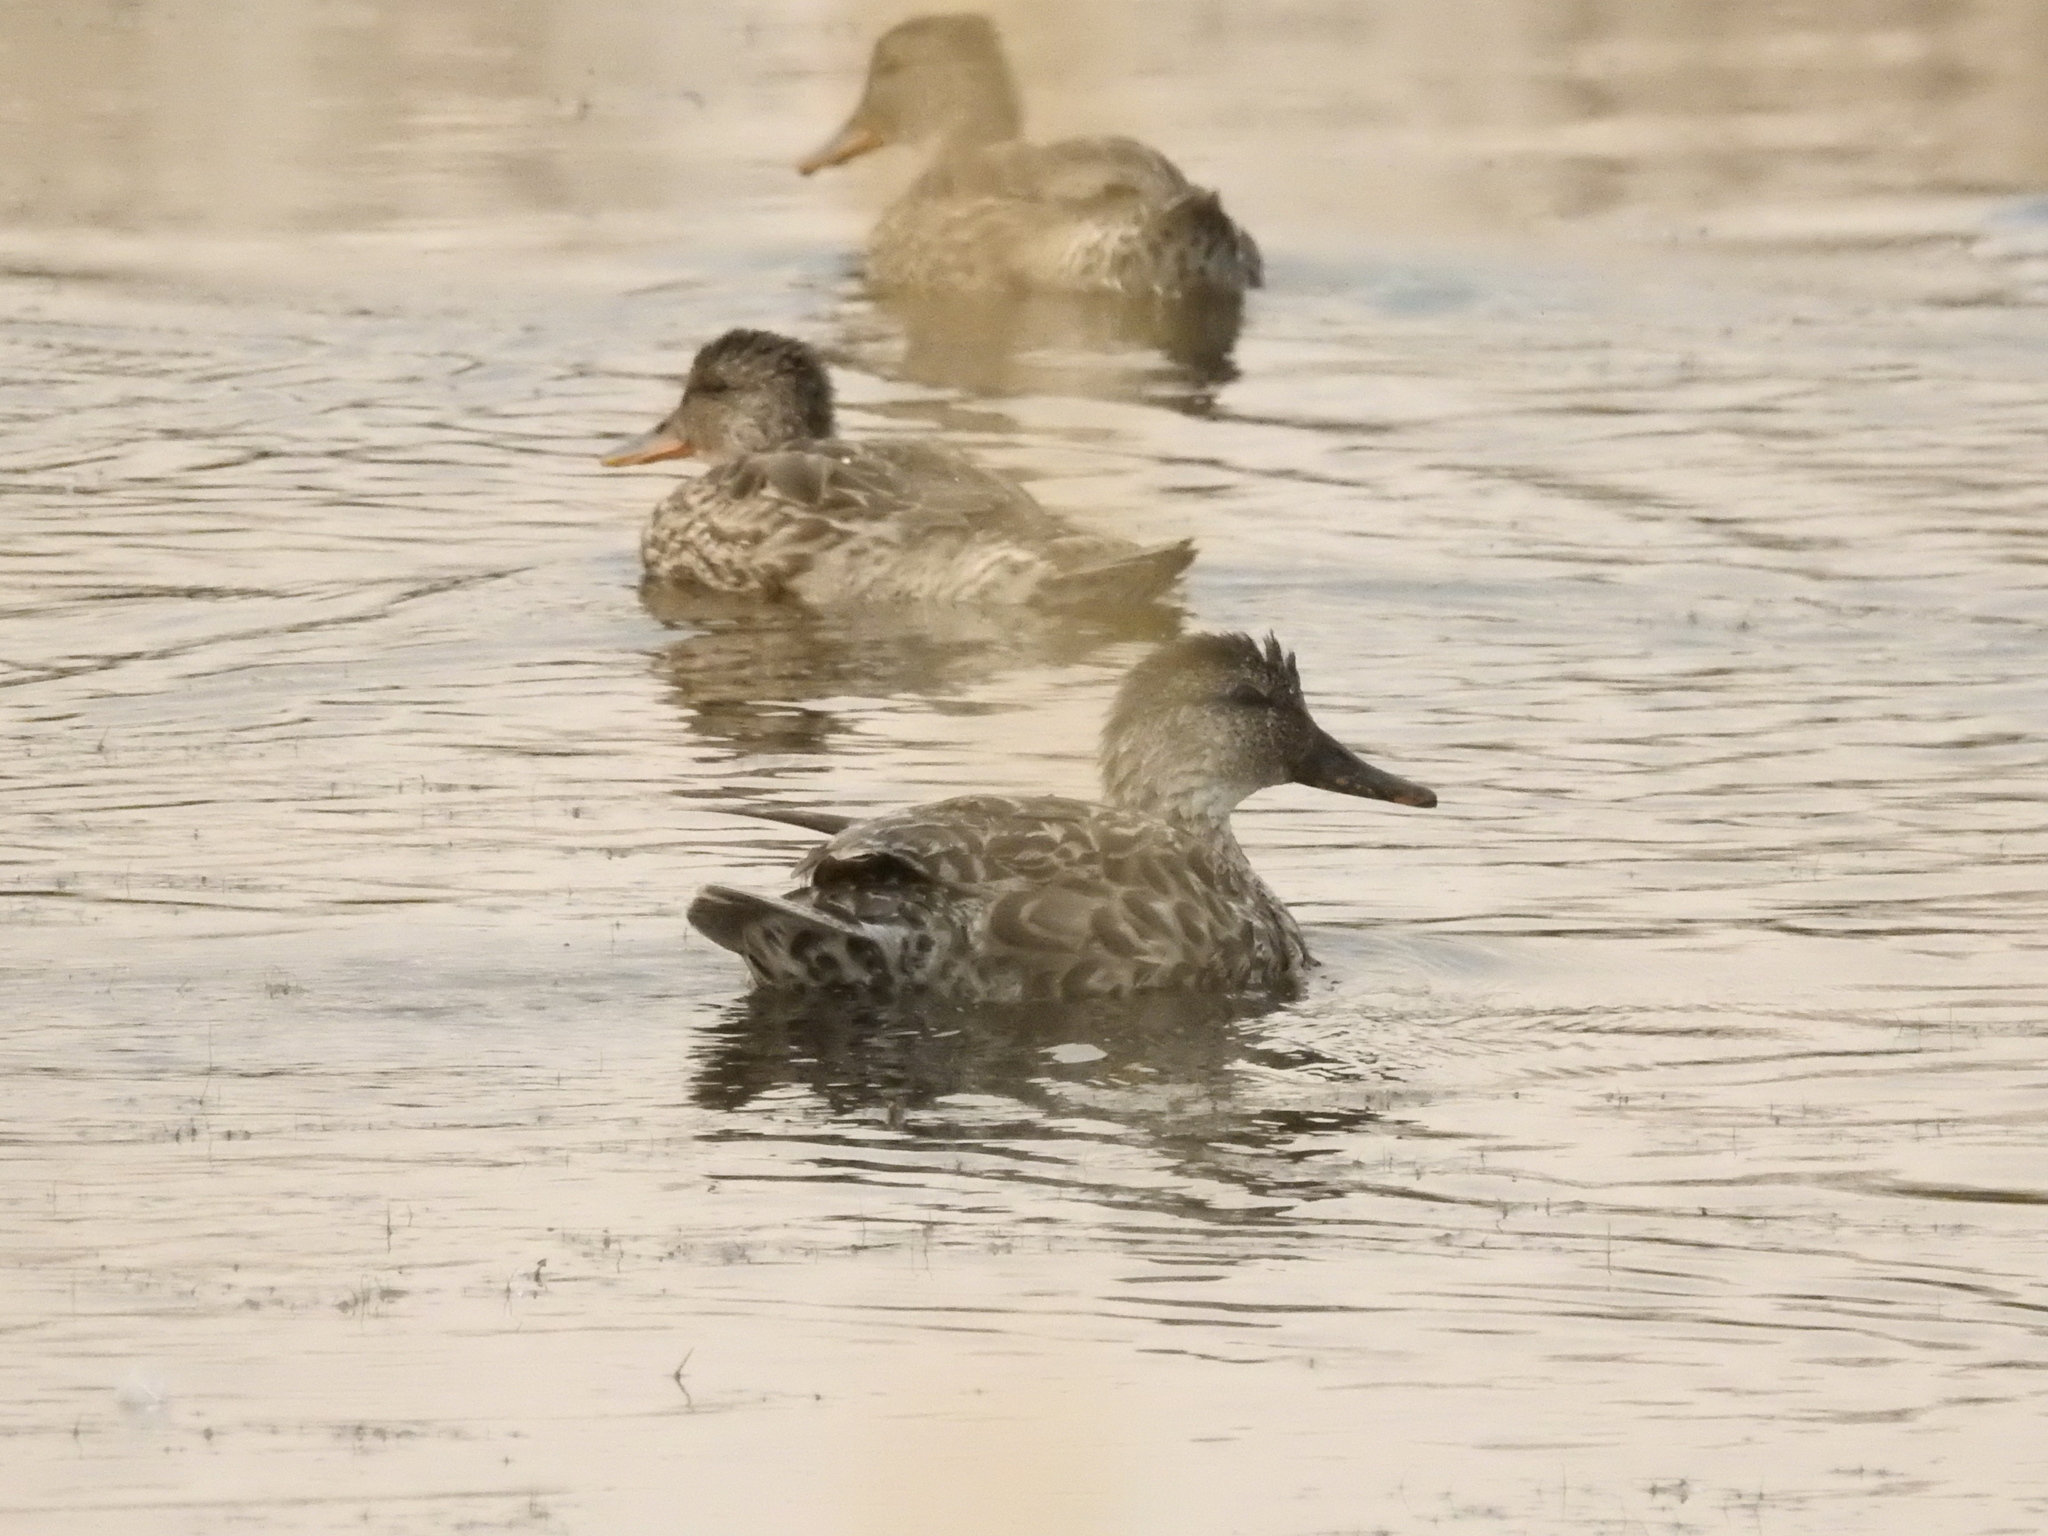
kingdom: Animalia
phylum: Chordata
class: Aves
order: Anseriformes
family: Anatidae
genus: Mareca
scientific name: Mareca strepera
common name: Gadwall
